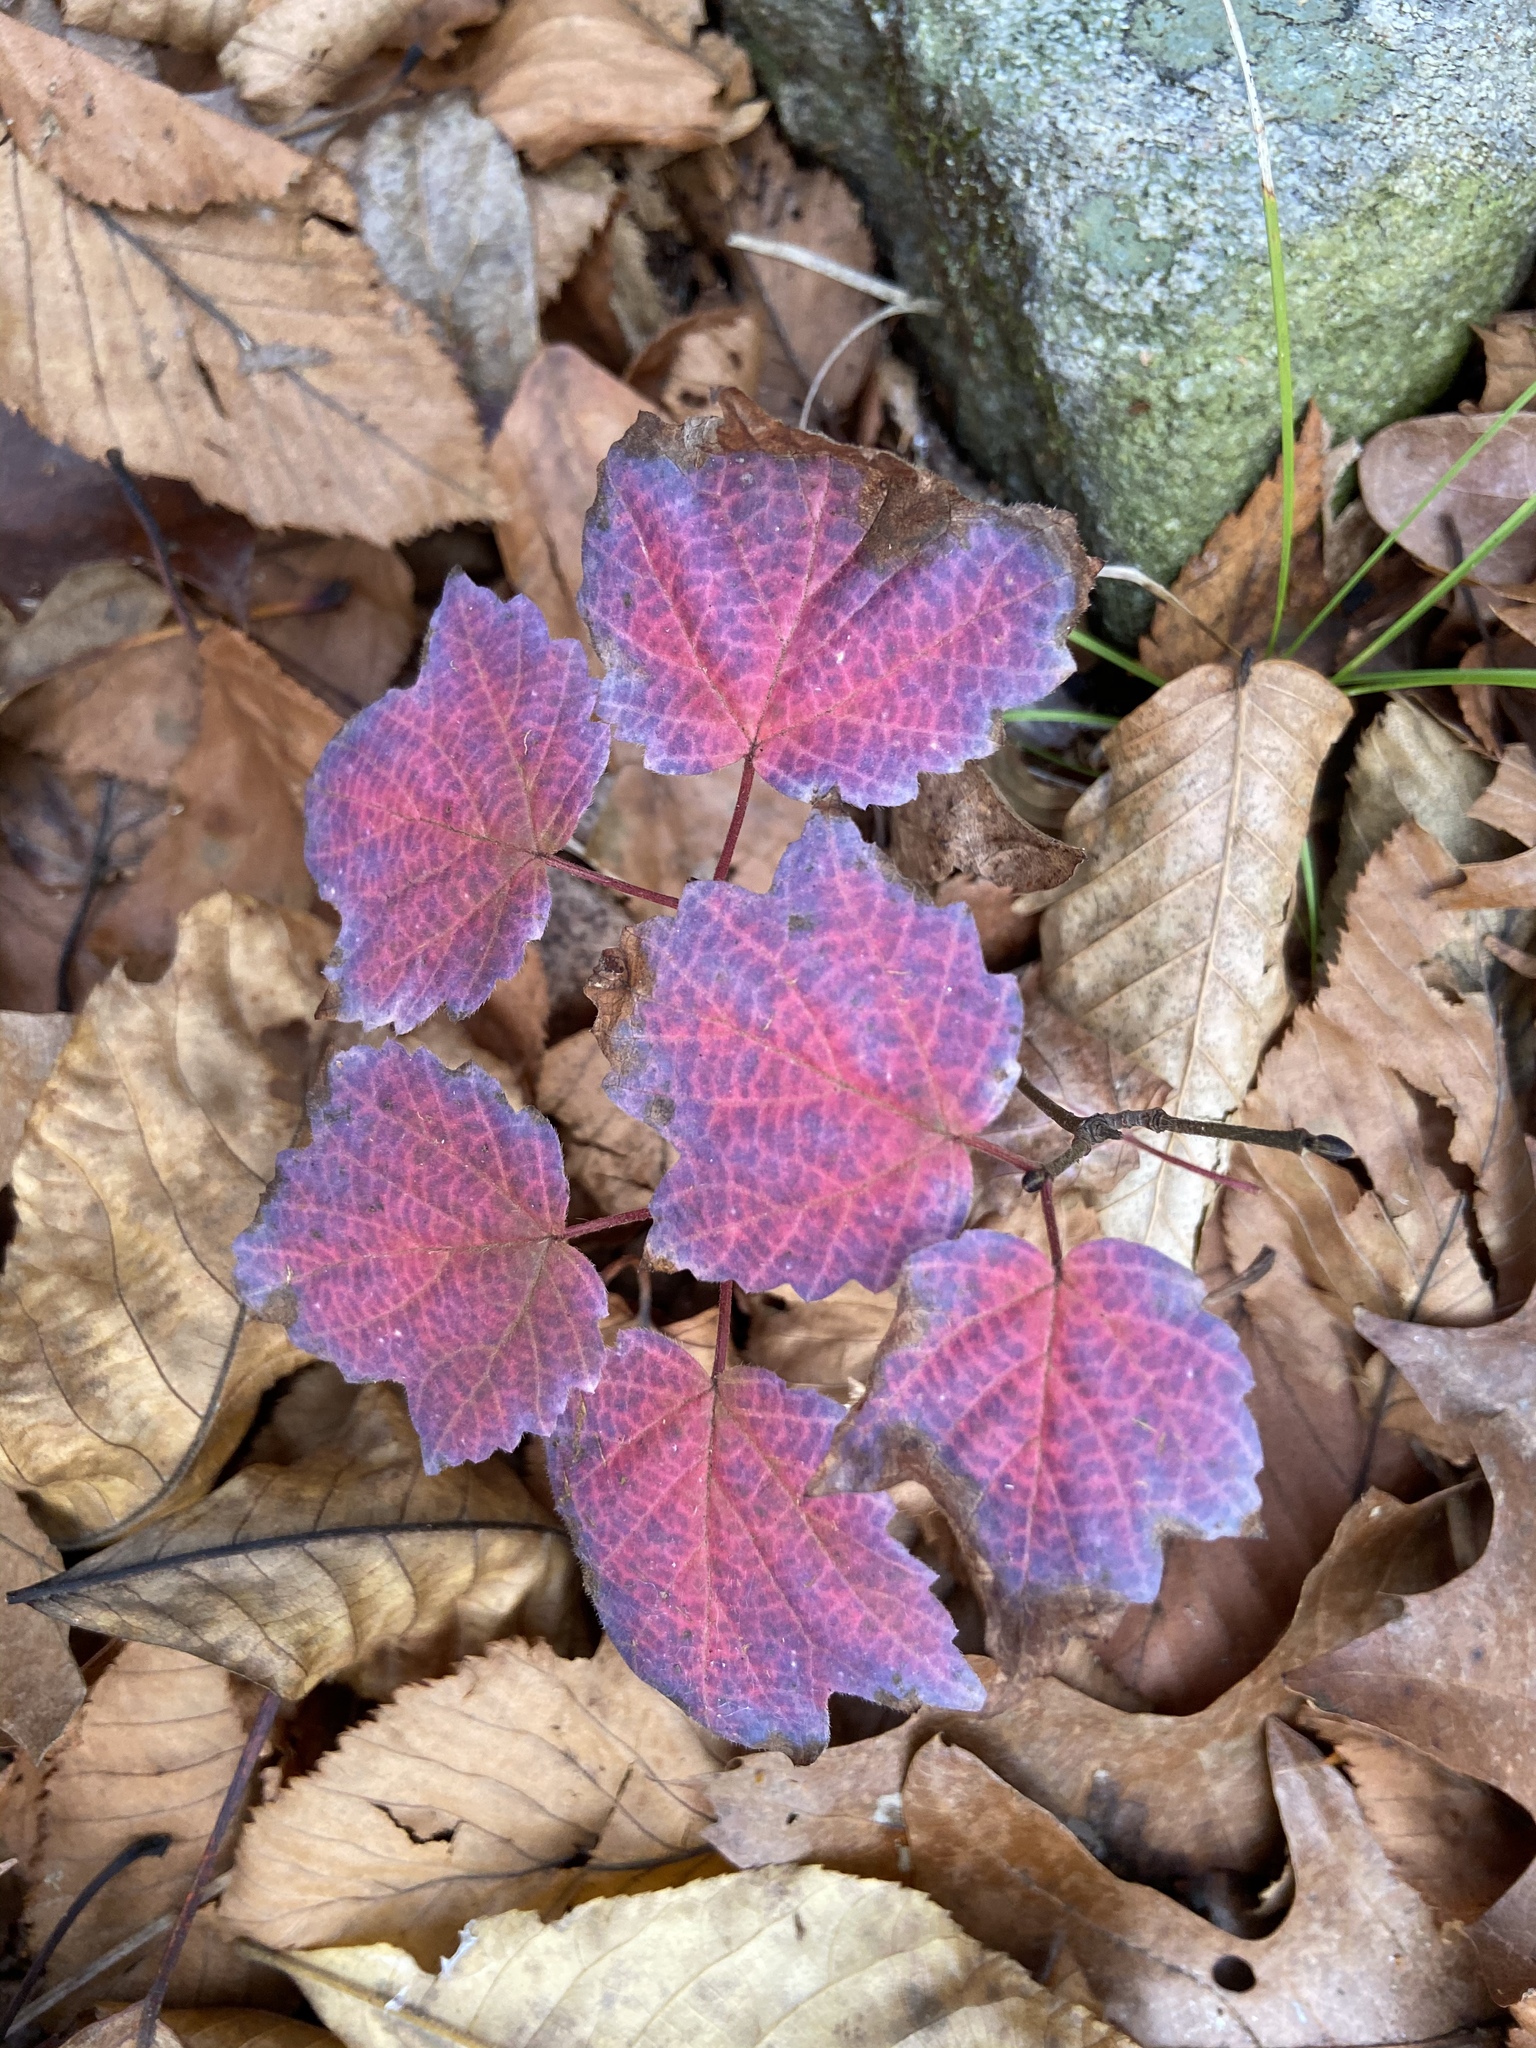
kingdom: Plantae
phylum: Tracheophyta
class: Magnoliopsida
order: Dipsacales
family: Viburnaceae
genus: Viburnum
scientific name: Viburnum acerifolium
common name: Dockmackie
